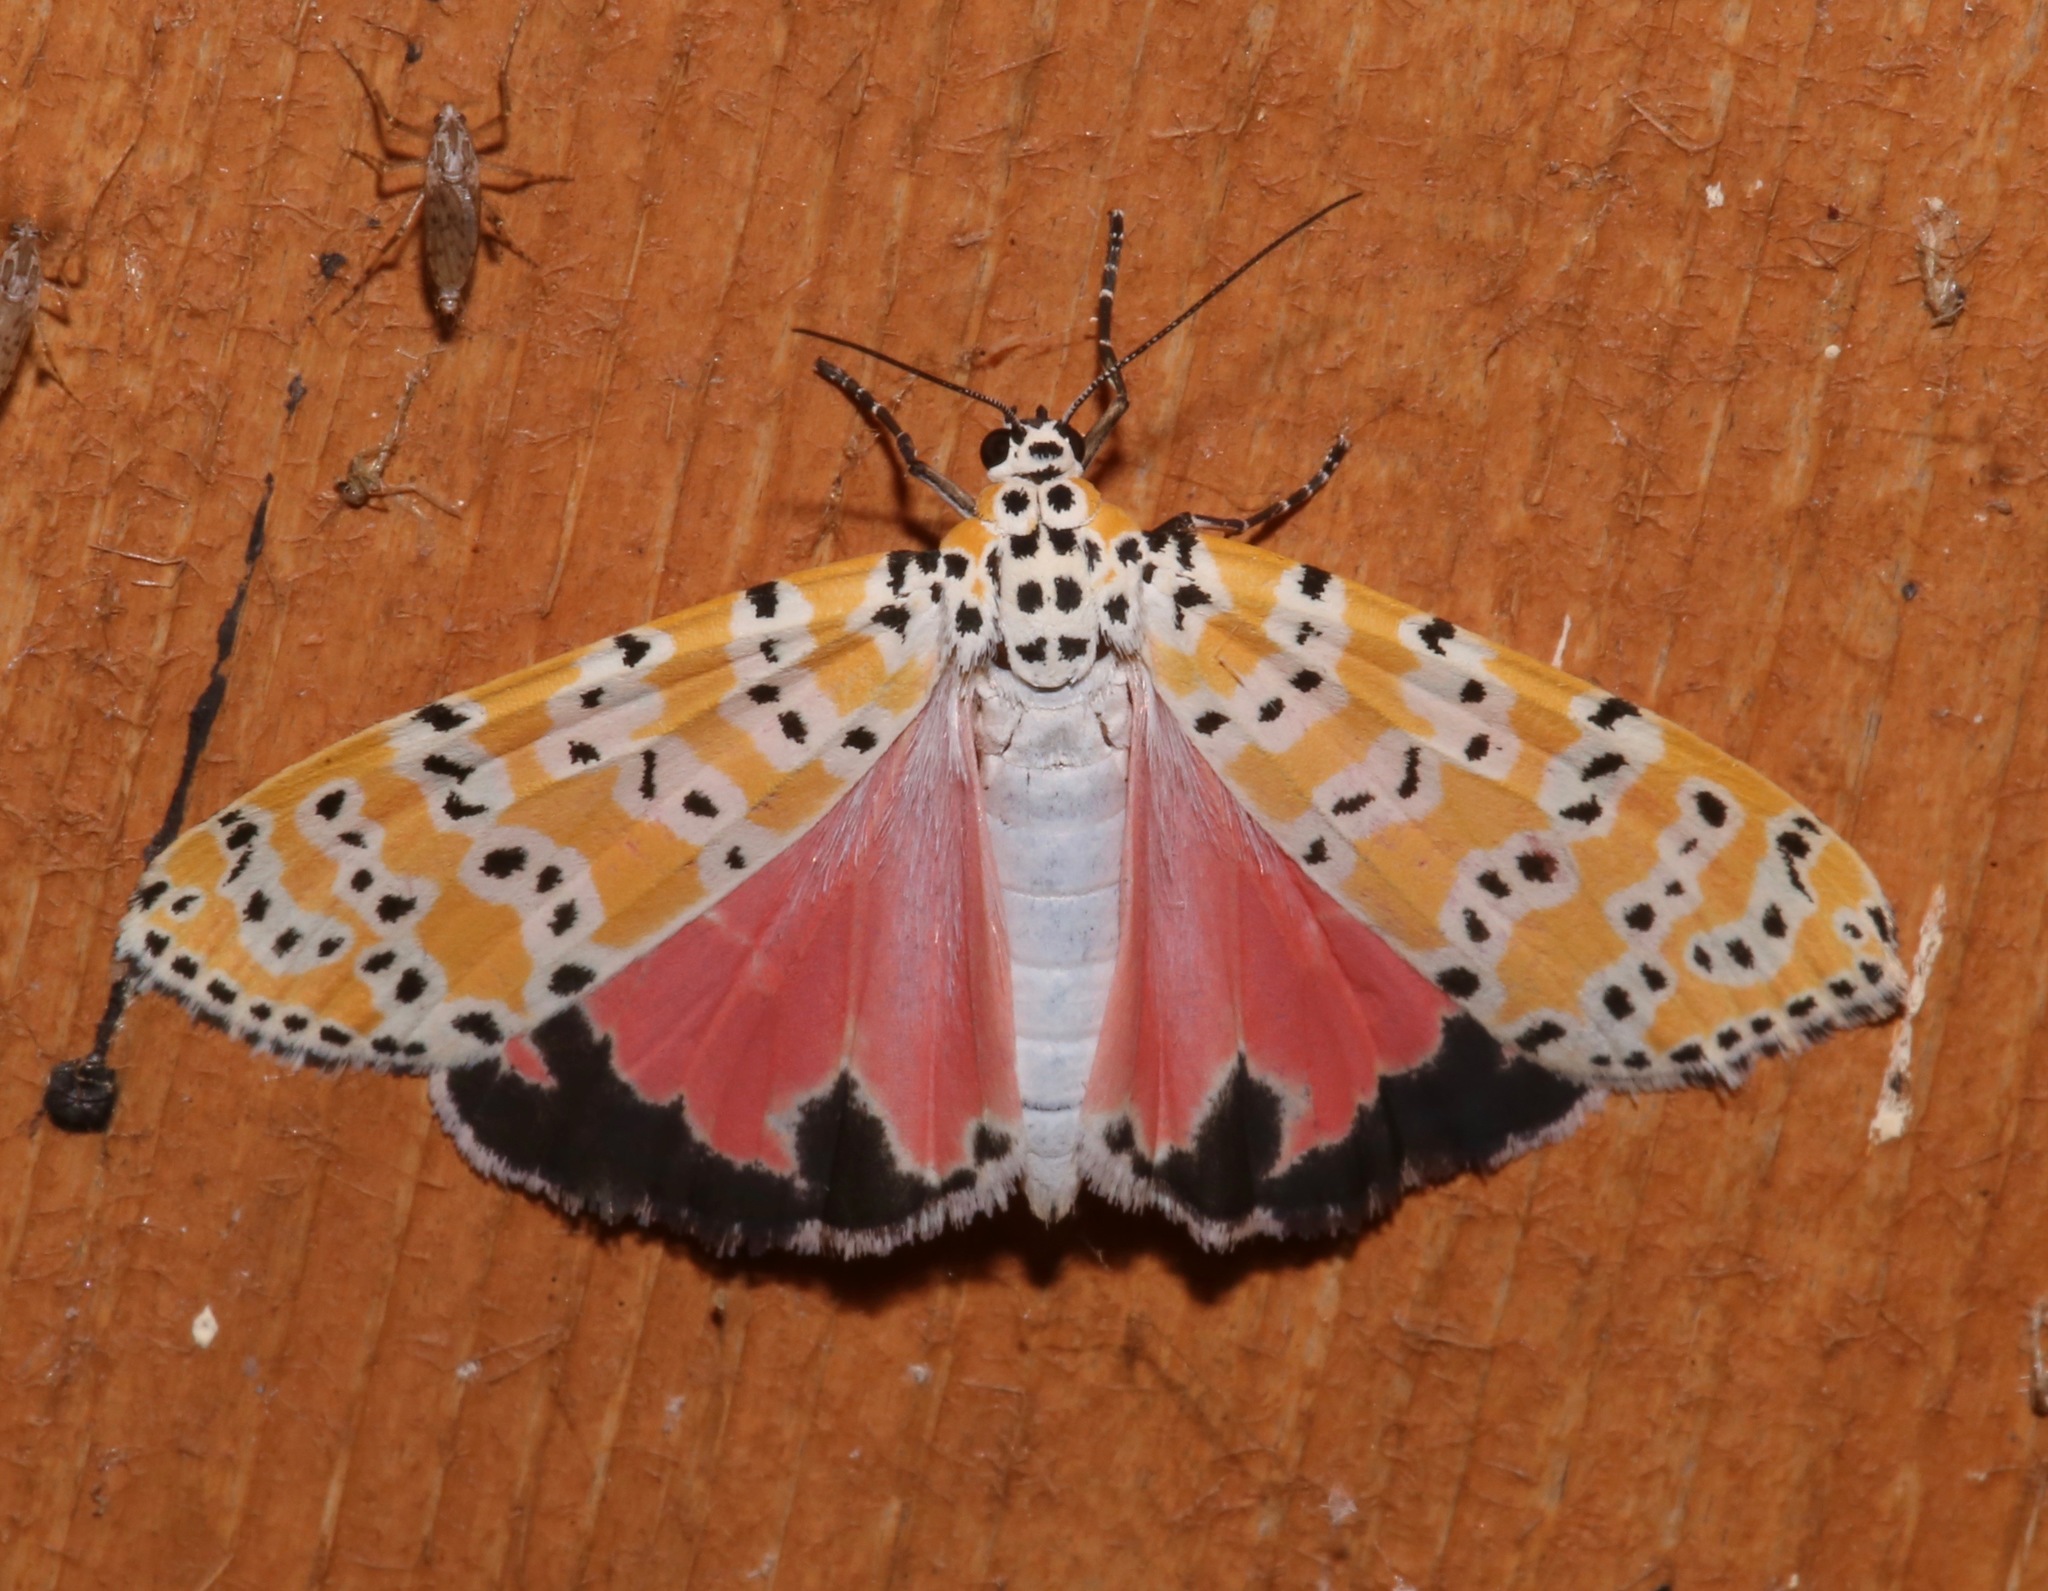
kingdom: Animalia
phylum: Arthropoda
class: Insecta
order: Lepidoptera
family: Erebidae
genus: Utetheisa
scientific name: Utetheisa ornatrix
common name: Beautiful utetheisa
